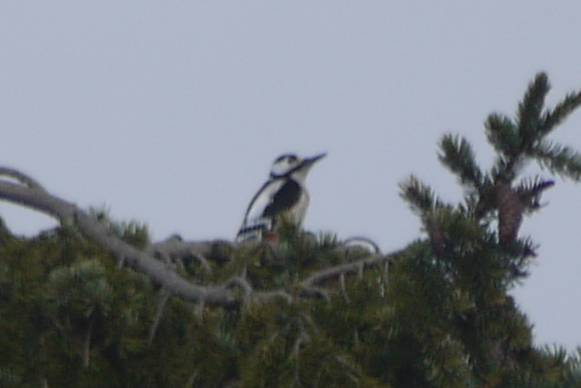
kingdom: Animalia
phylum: Chordata
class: Aves
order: Piciformes
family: Picidae
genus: Dendrocopos
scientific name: Dendrocopos major
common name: Great spotted woodpecker
